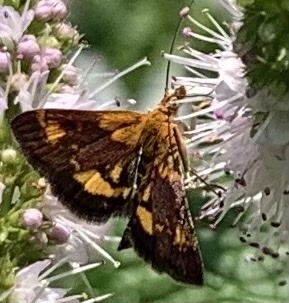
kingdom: Animalia
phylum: Arthropoda
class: Insecta
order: Lepidoptera
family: Crambidae
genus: Pyrausta
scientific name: Pyrausta orphisalis
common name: Orange mint moth
